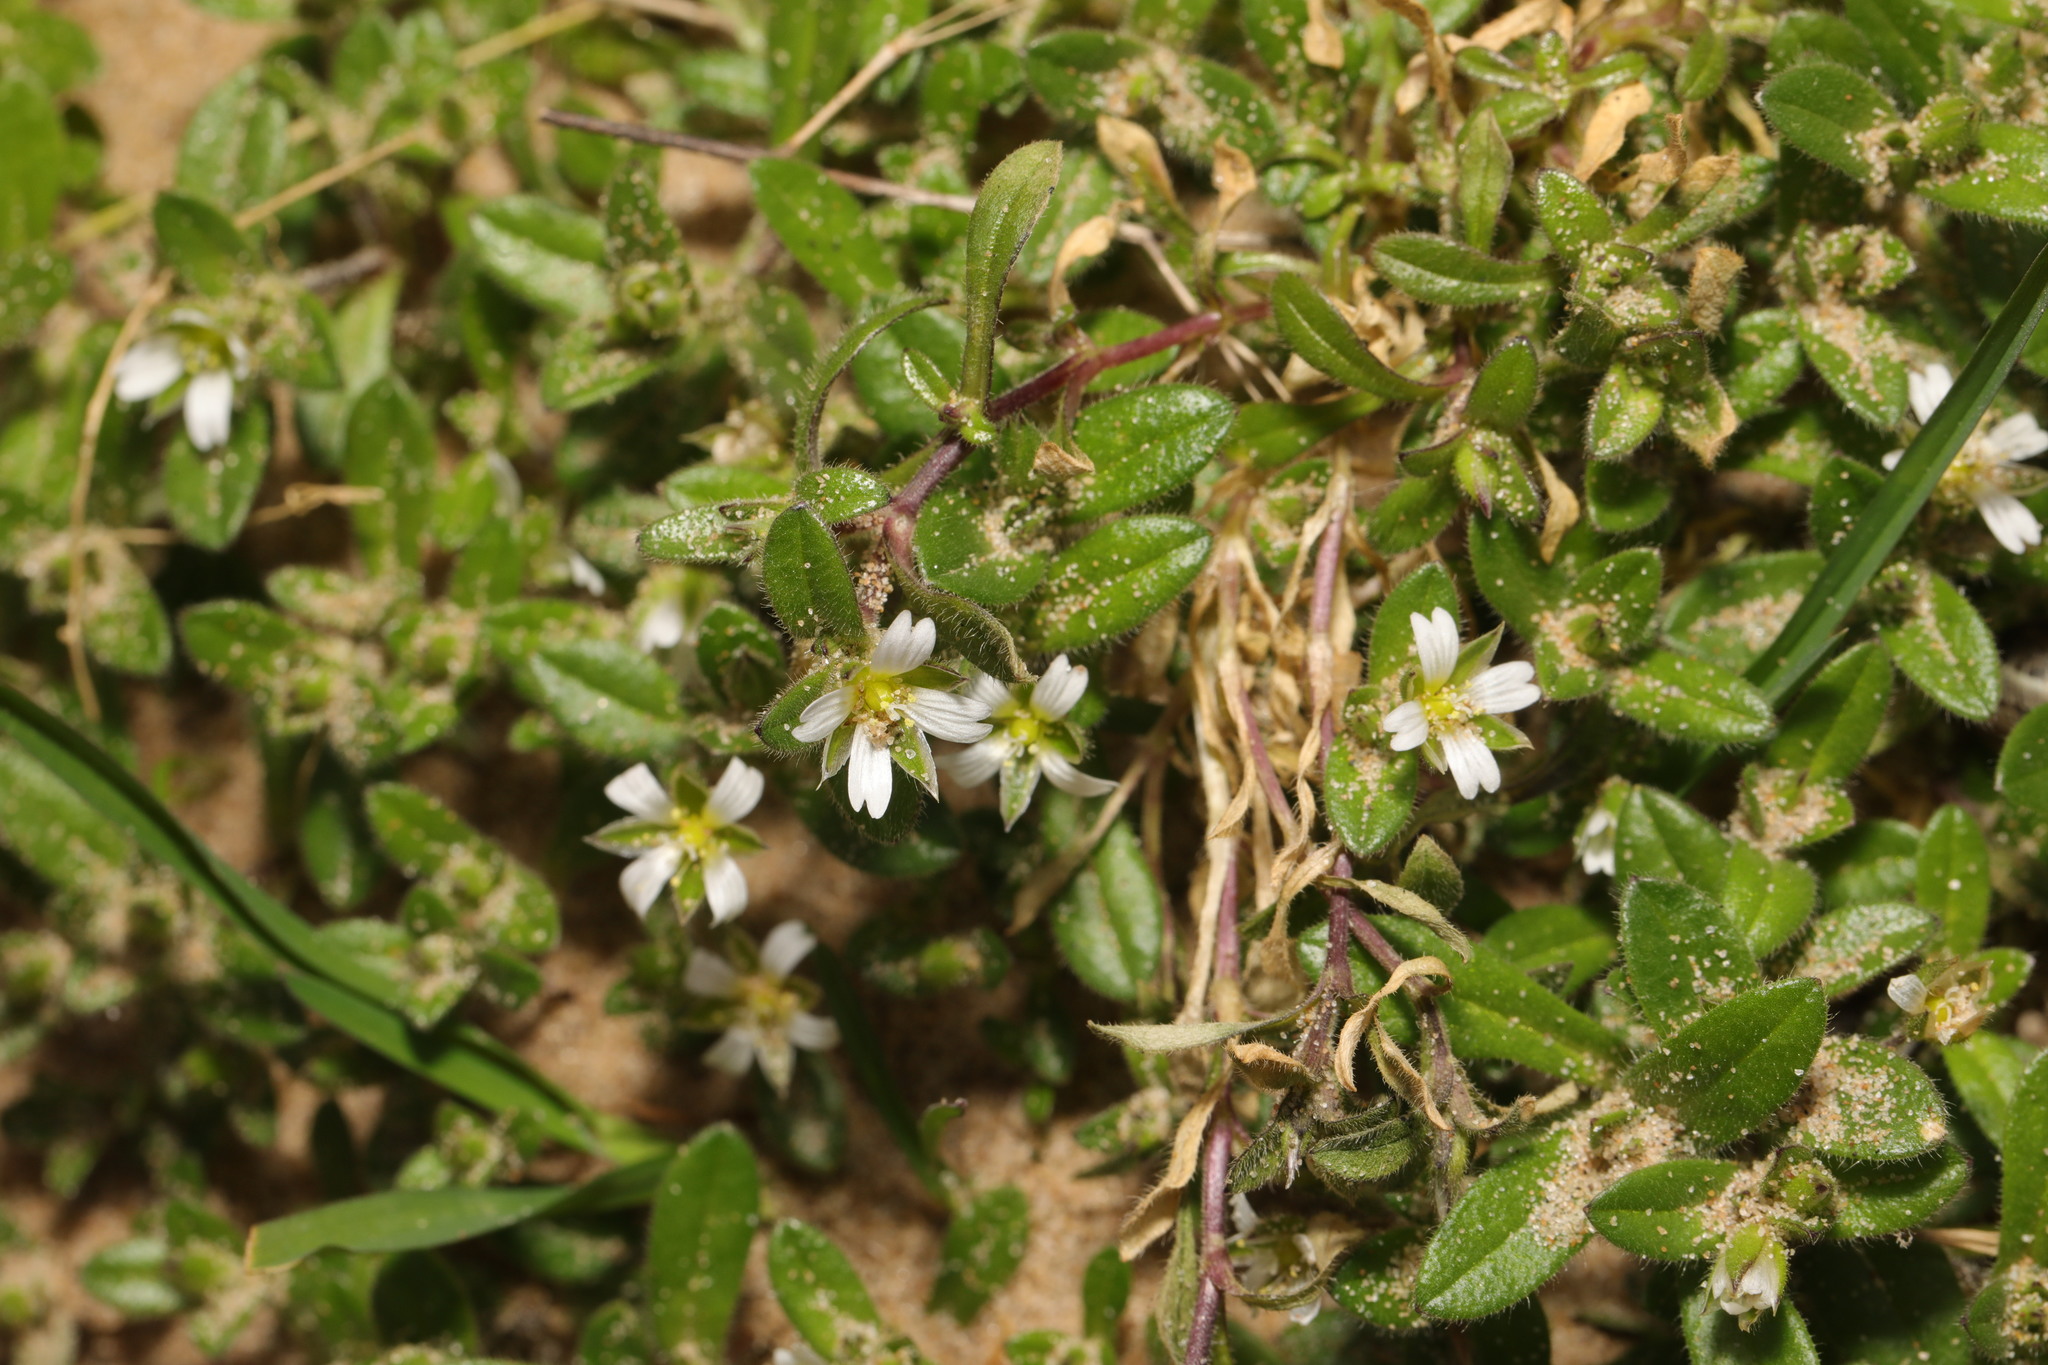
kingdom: Plantae
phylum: Tracheophyta
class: Magnoliopsida
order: Caryophyllales
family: Caryophyllaceae
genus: Cerastium
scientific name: Cerastium diffusum
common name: Fourstamen chickweed
